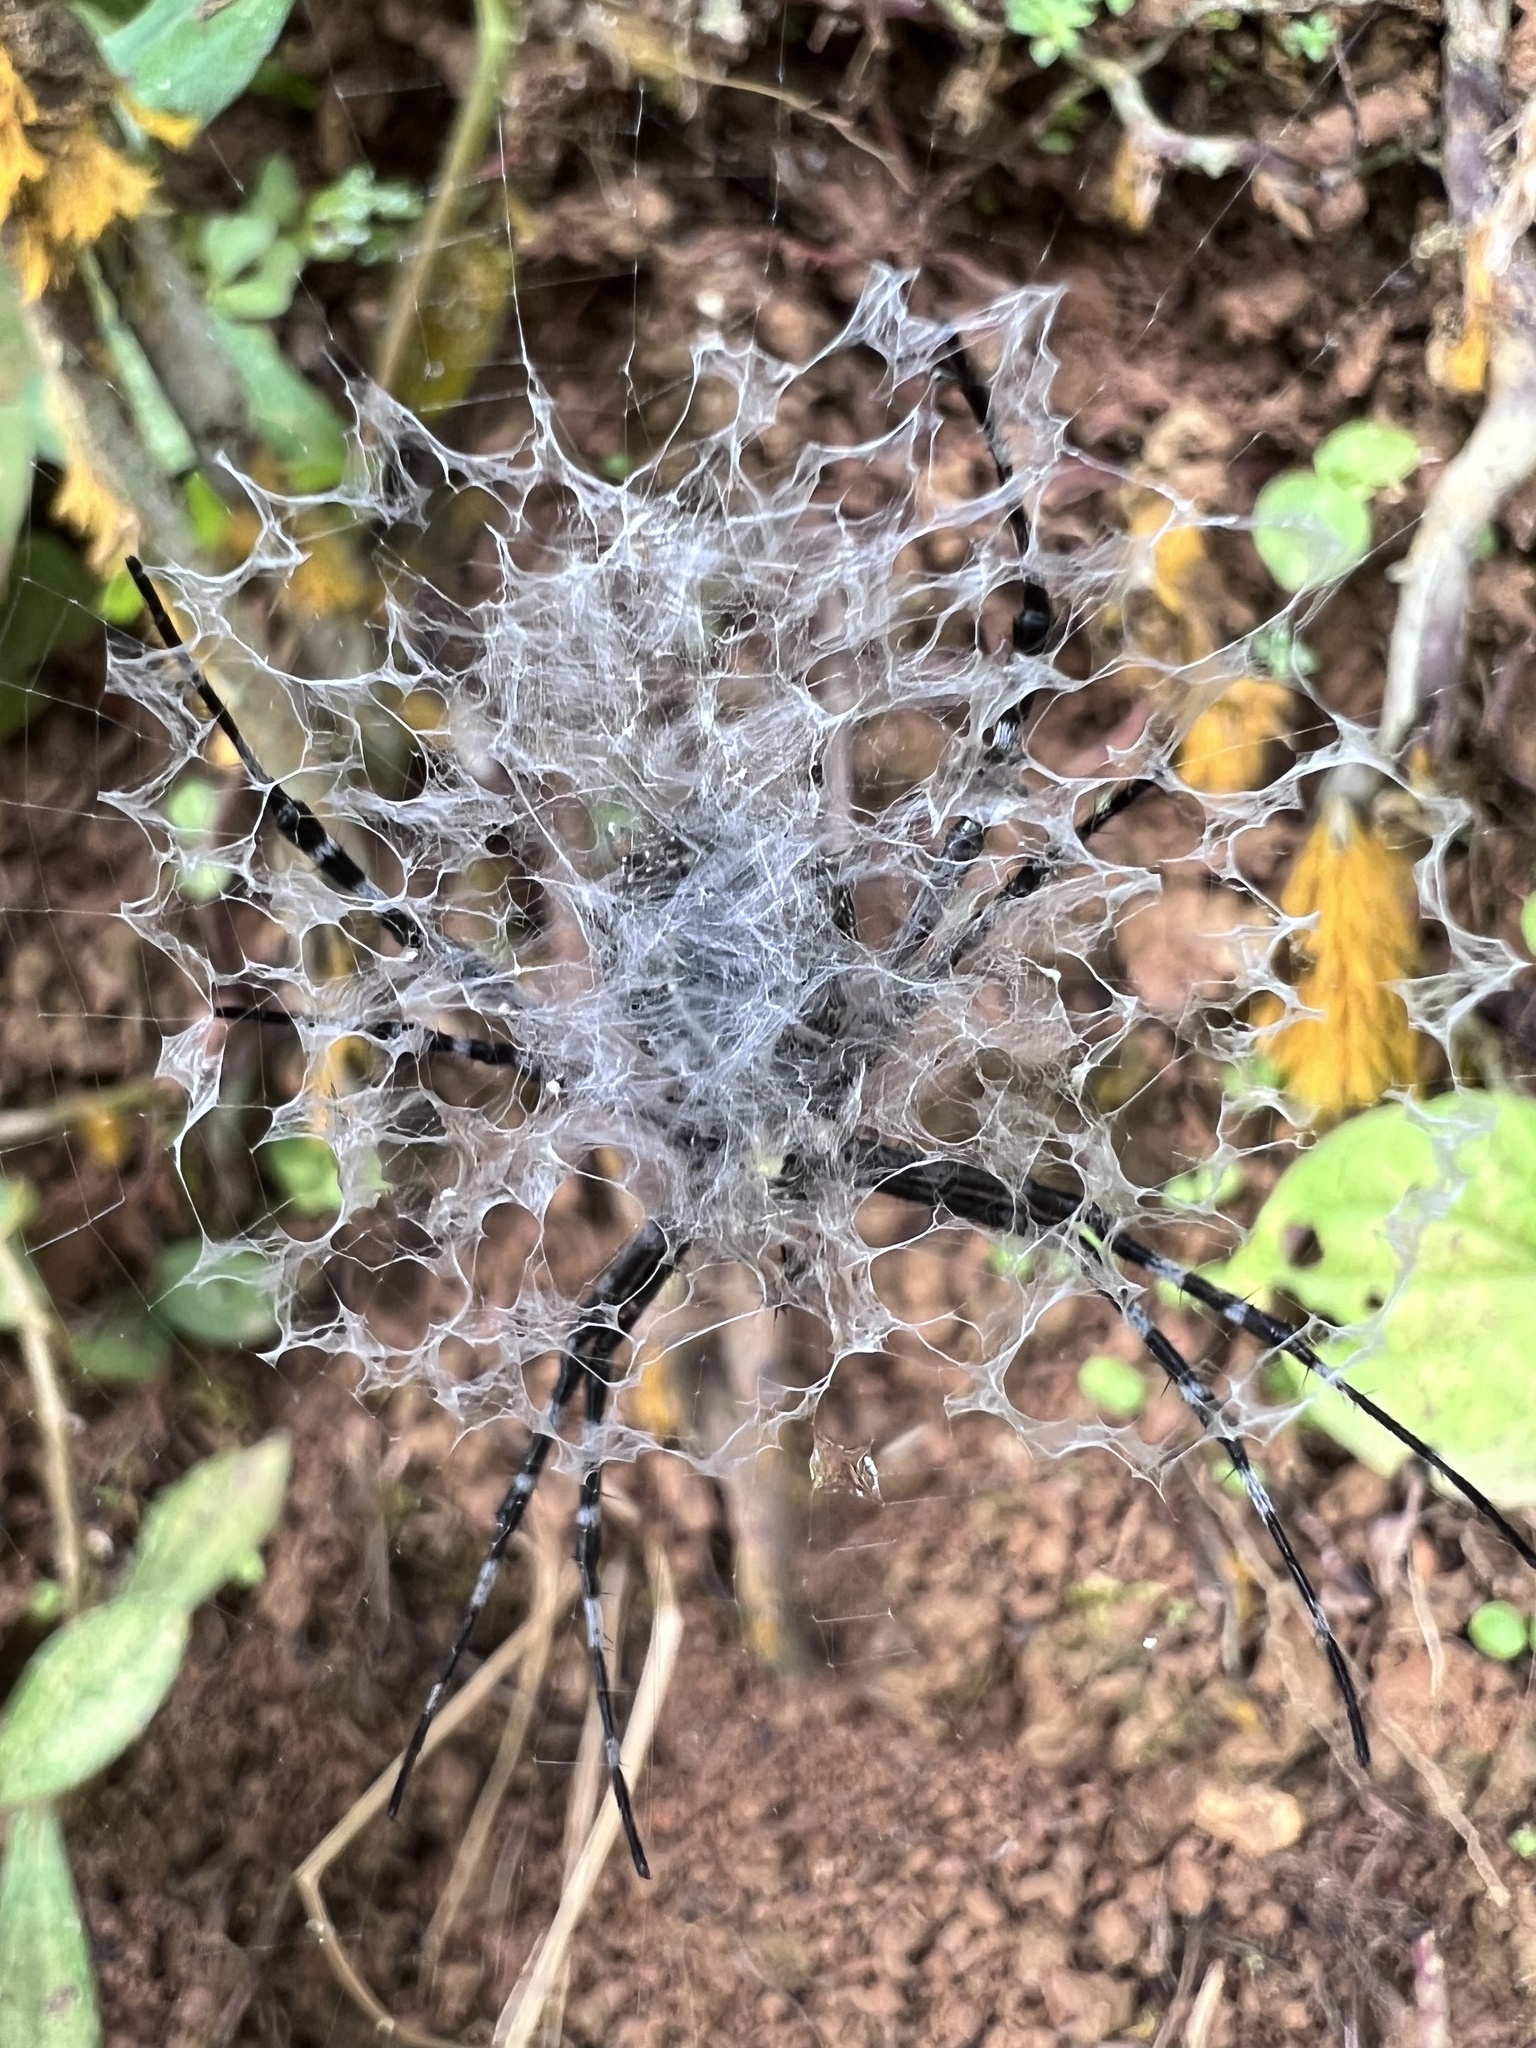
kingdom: Animalia
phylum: Arthropoda
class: Arachnida
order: Araneae
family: Araneidae
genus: Argiope
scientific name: Argiope submaronica
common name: Orb weavers
